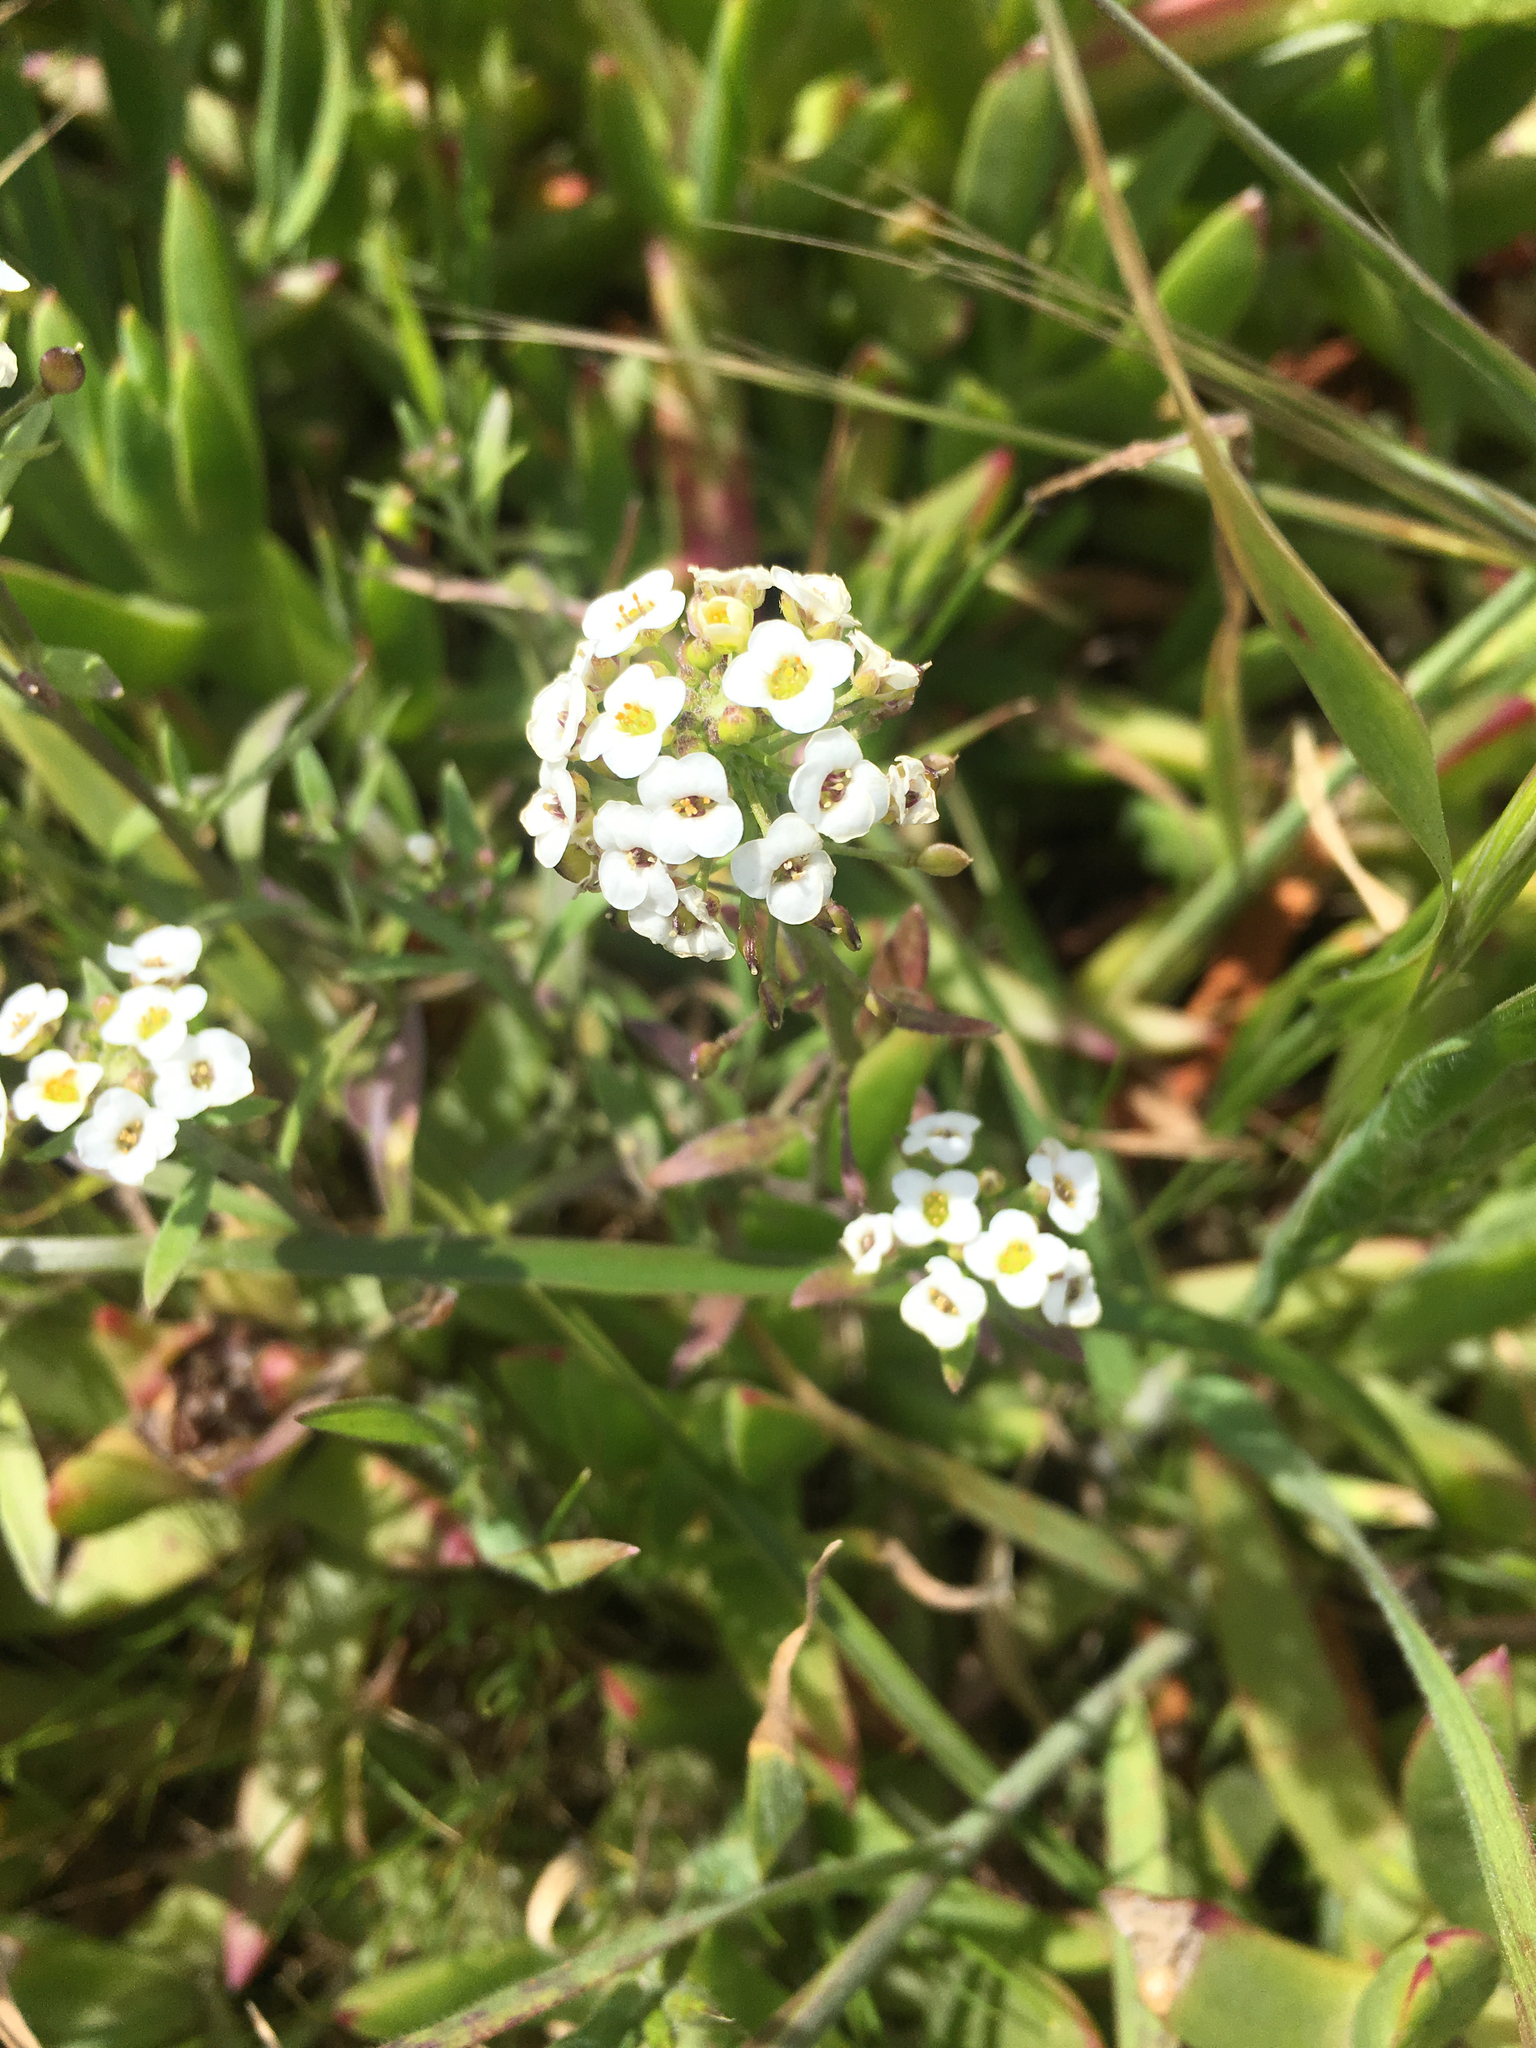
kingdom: Plantae
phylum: Tracheophyta
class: Magnoliopsida
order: Brassicales
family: Brassicaceae
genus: Lobularia
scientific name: Lobularia maritima
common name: Sweet alison
